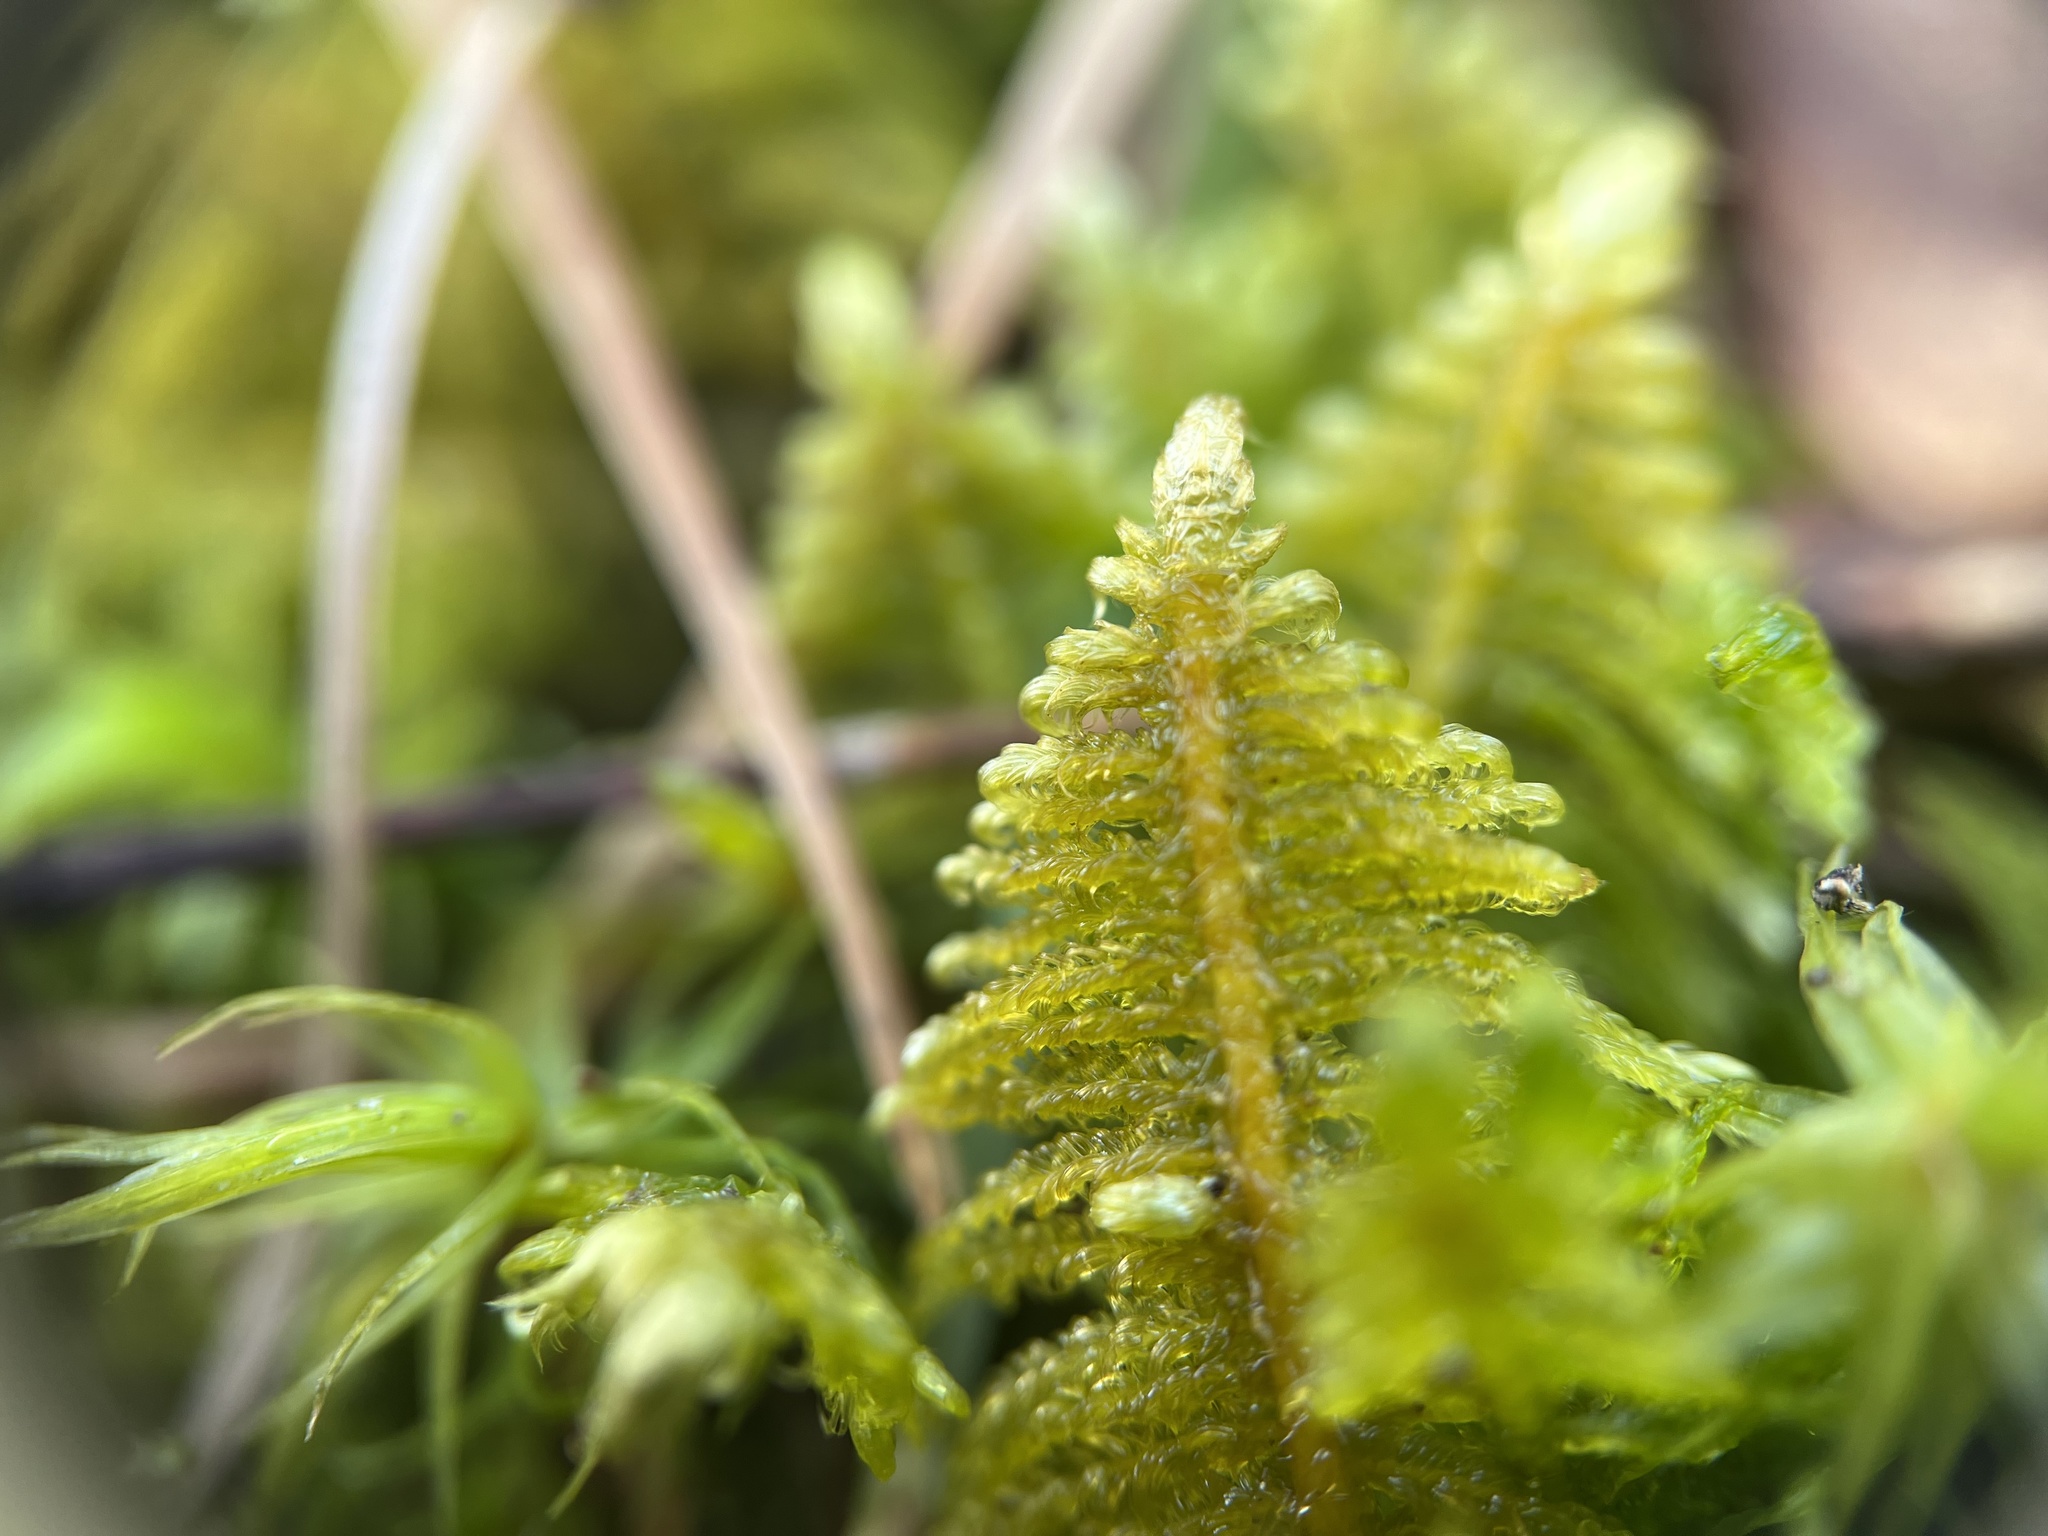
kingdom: Plantae
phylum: Bryophyta
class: Bryopsida
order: Hypnales
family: Pylaisiaceae
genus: Ptilium
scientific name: Ptilium crista-castrensis
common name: Knight's plume moss
